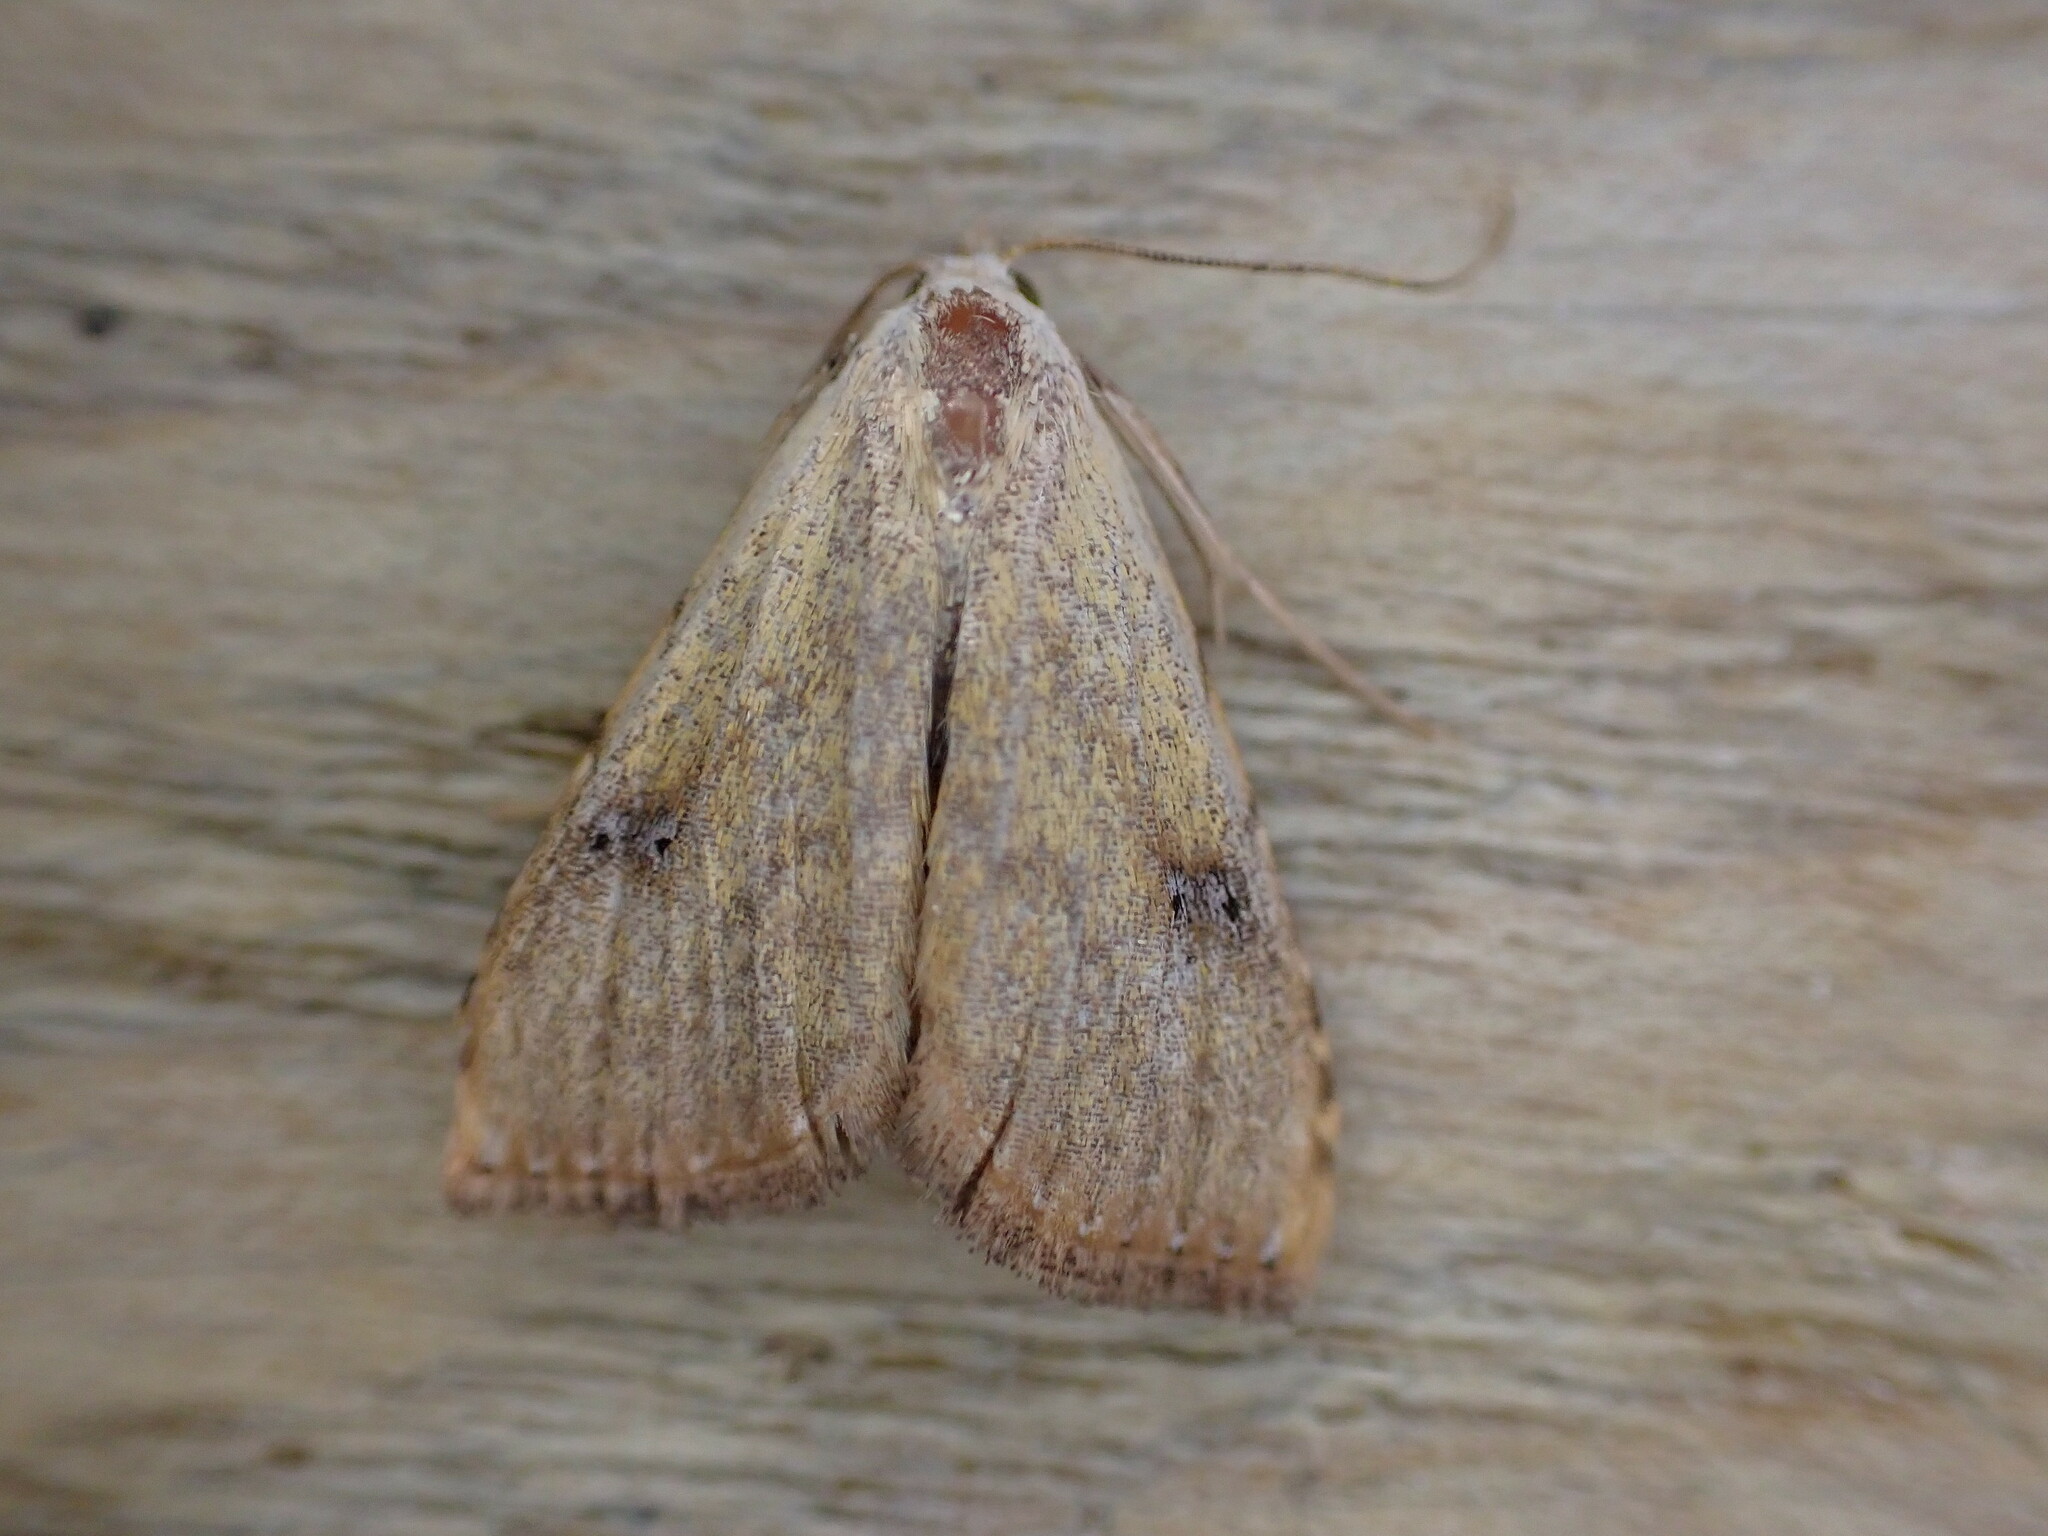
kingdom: Animalia
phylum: Arthropoda
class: Insecta
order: Lepidoptera
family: Erebidae
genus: Rivula
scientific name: Rivula sericealis
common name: Straw dot
